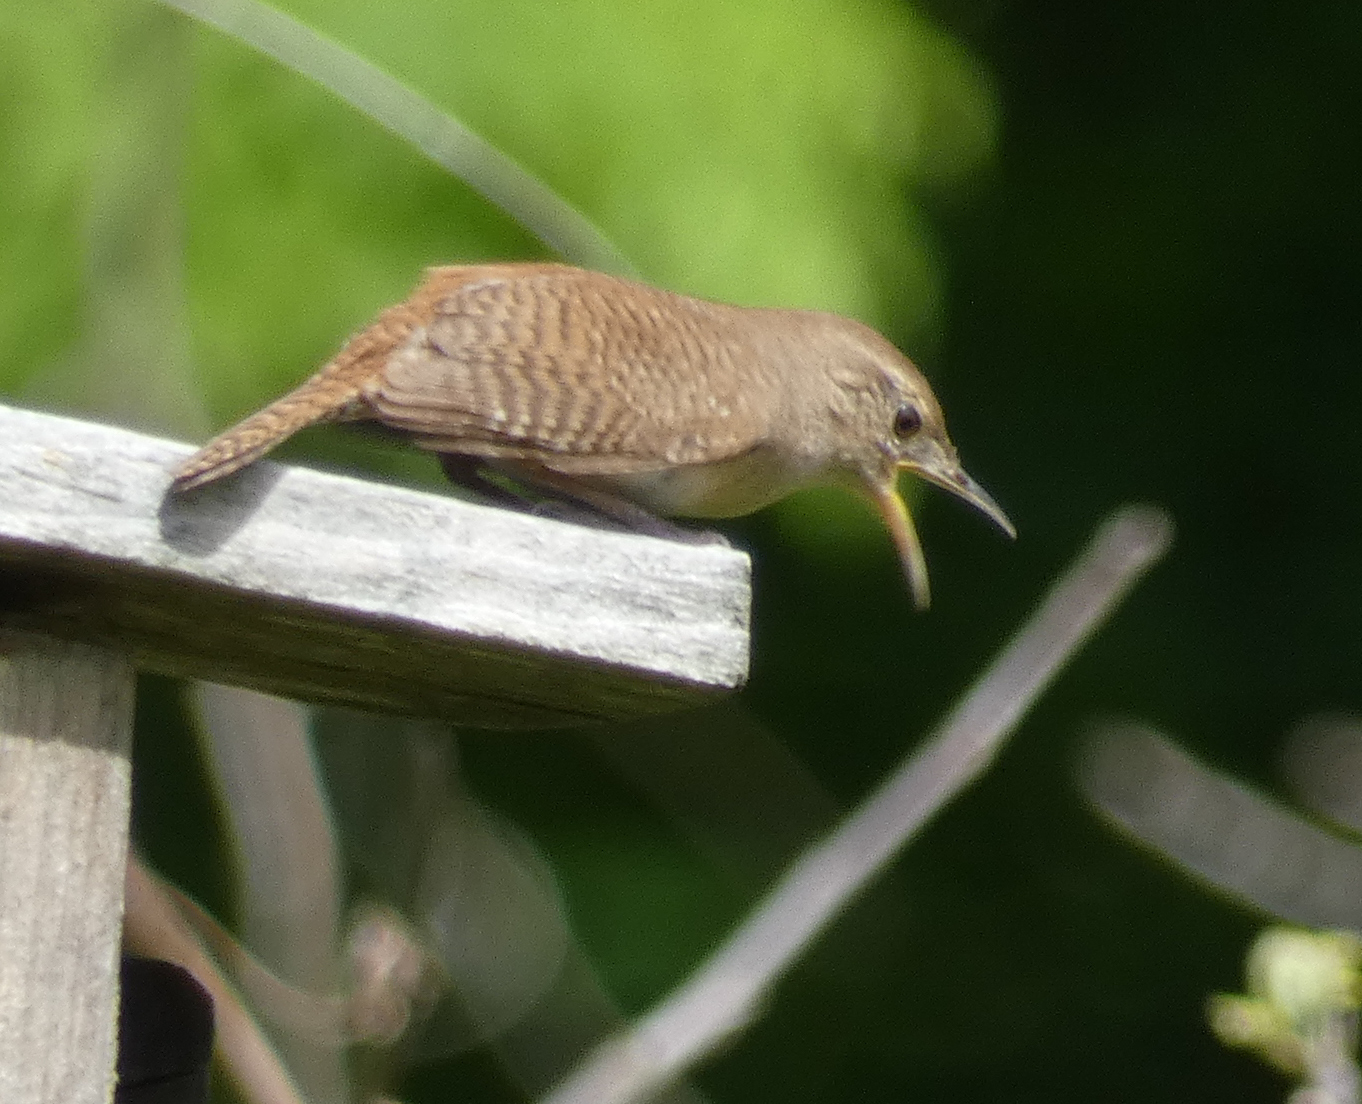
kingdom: Animalia
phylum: Chordata
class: Aves
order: Passeriformes
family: Troglodytidae
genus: Troglodytes
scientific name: Troglodytes aedon
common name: House wren
